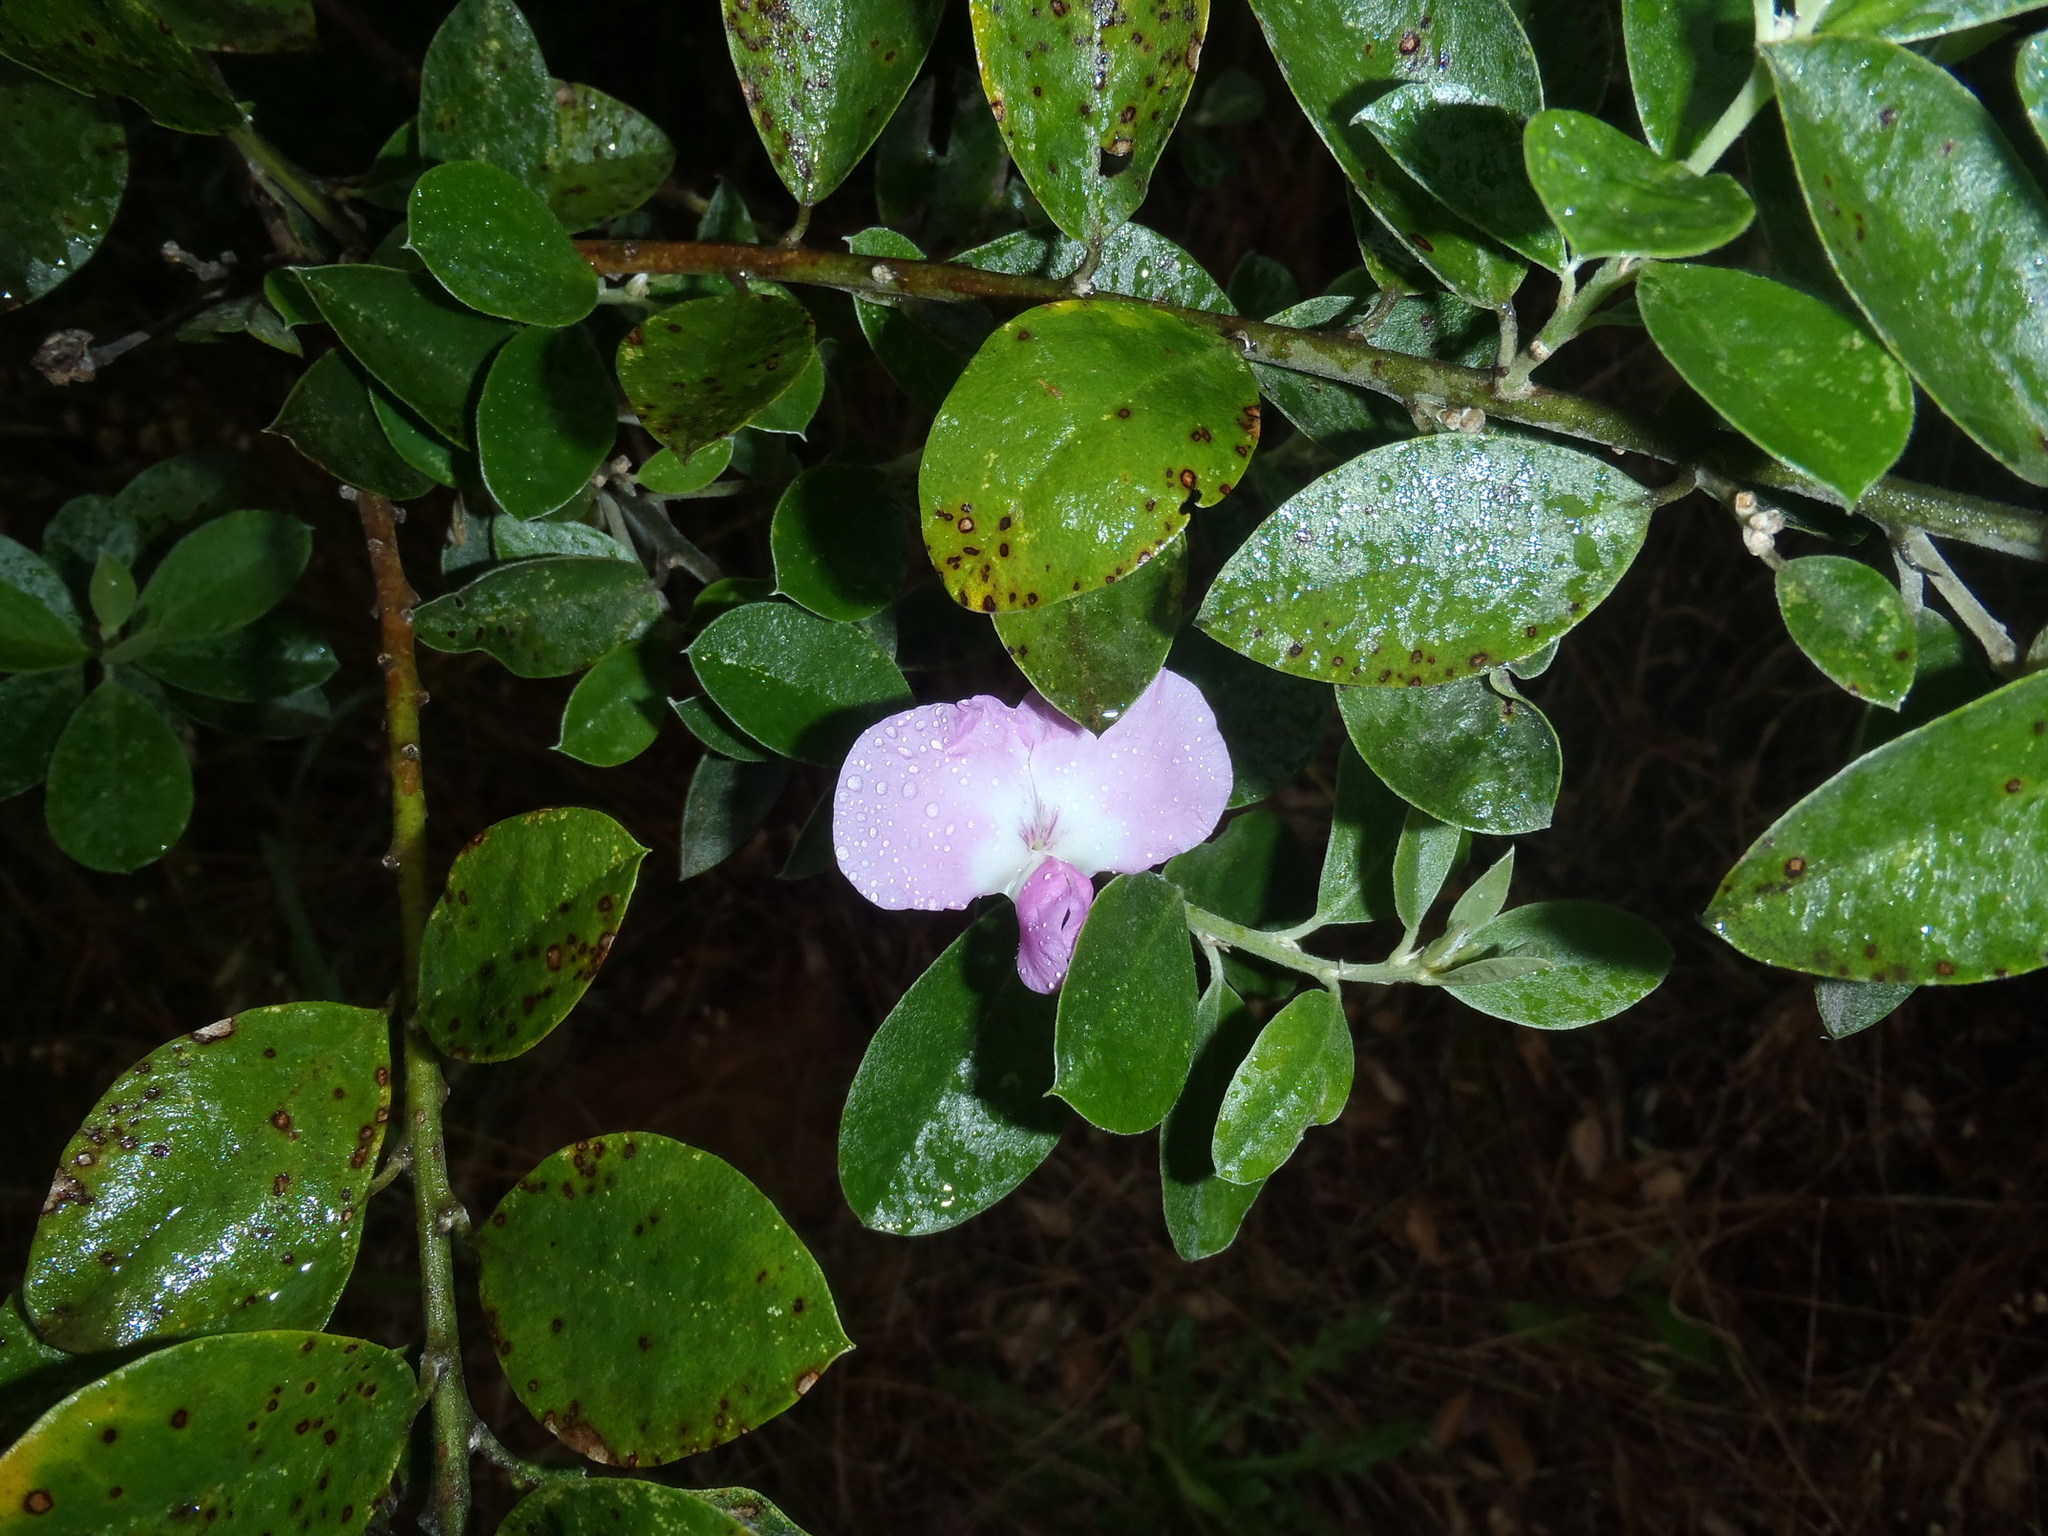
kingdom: Plantae
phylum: Tracheophyta
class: Magnoliopsida
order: Fabales
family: Fabaceae
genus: Podalyria
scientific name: Podalyria calyptrata
